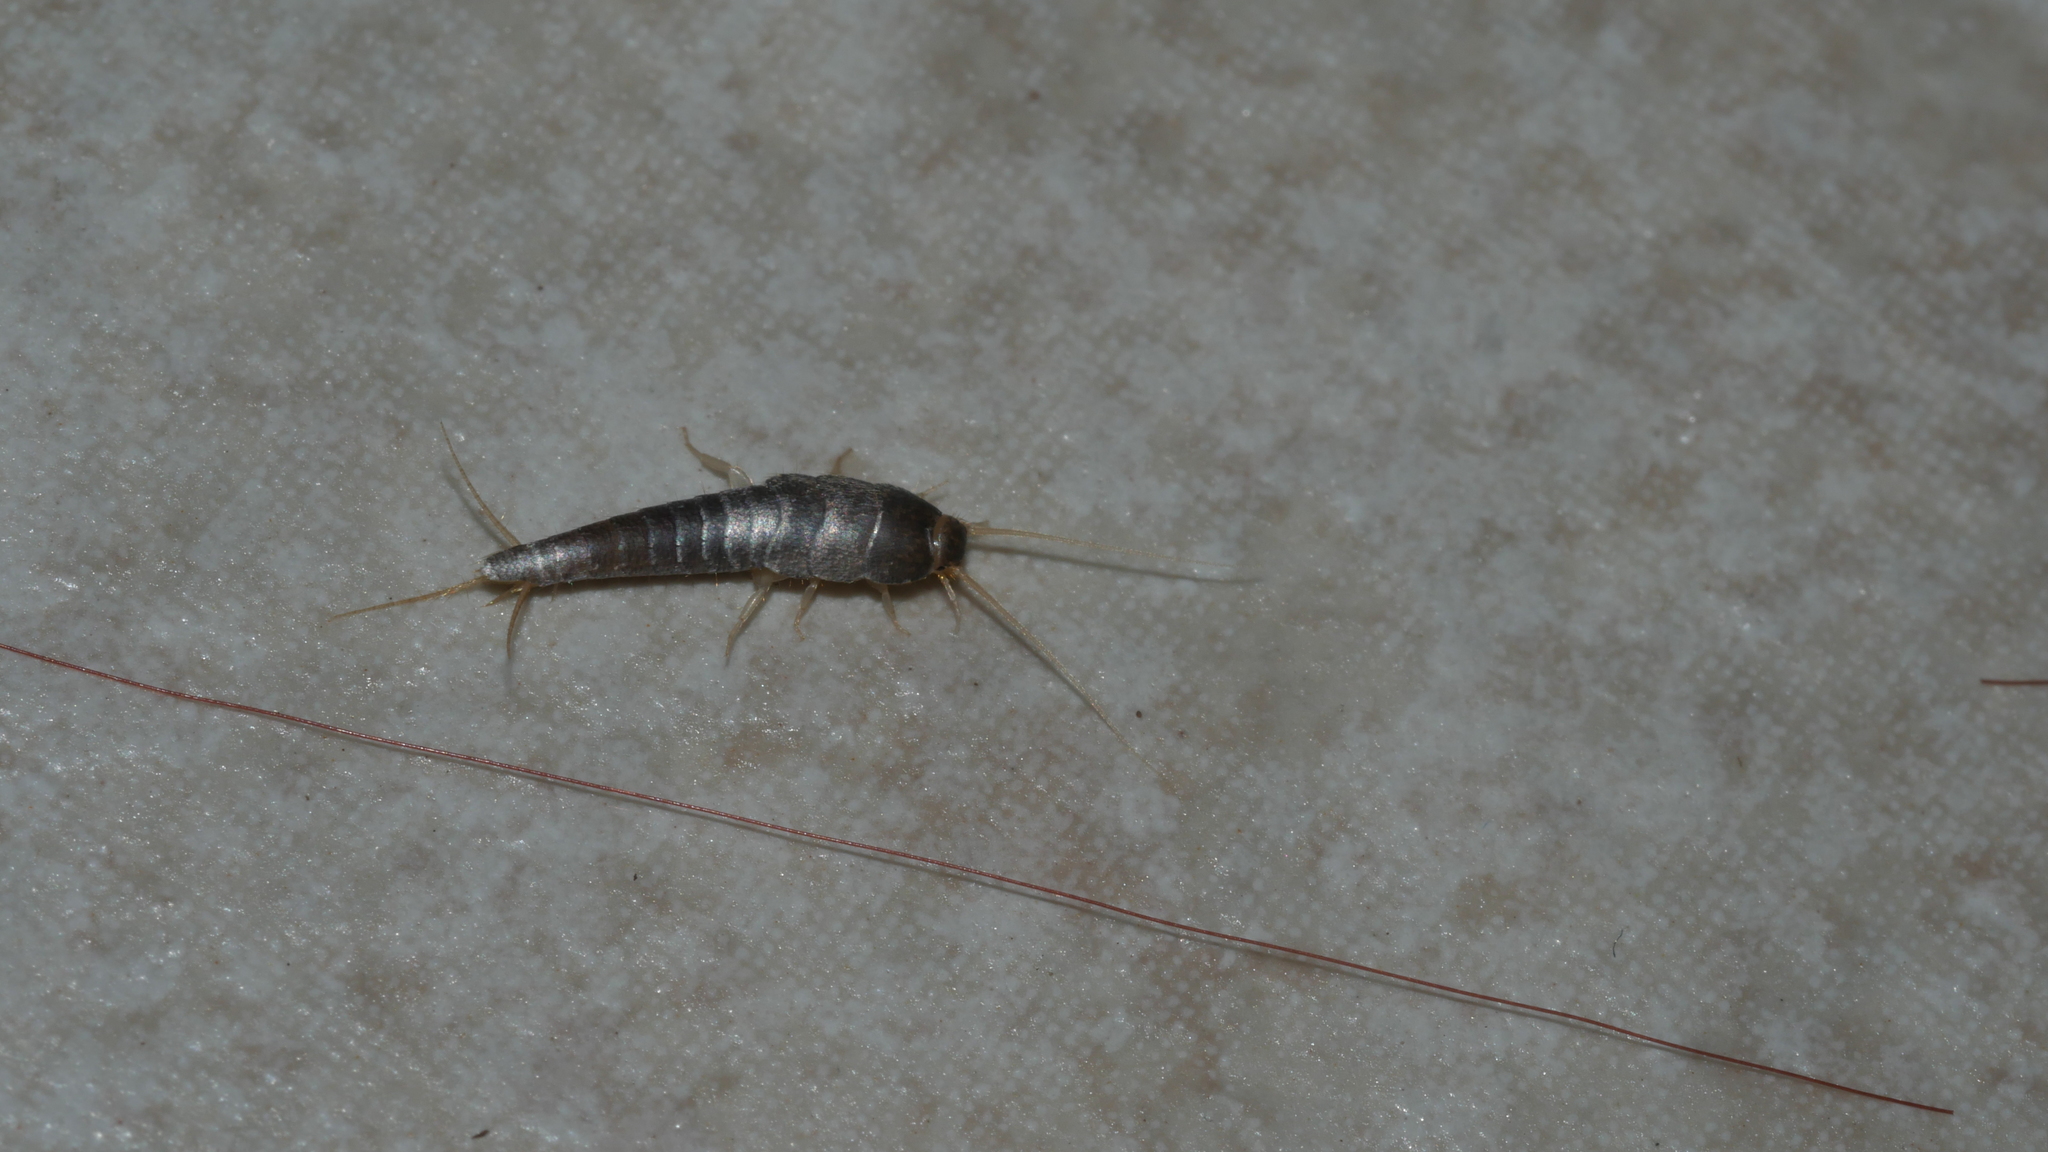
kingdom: Animalia
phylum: Arthropoda
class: Insecta
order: Zygentoma
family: Lepismatidae
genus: Lepisma
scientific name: Lepisma saccharinum
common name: Silverfish
